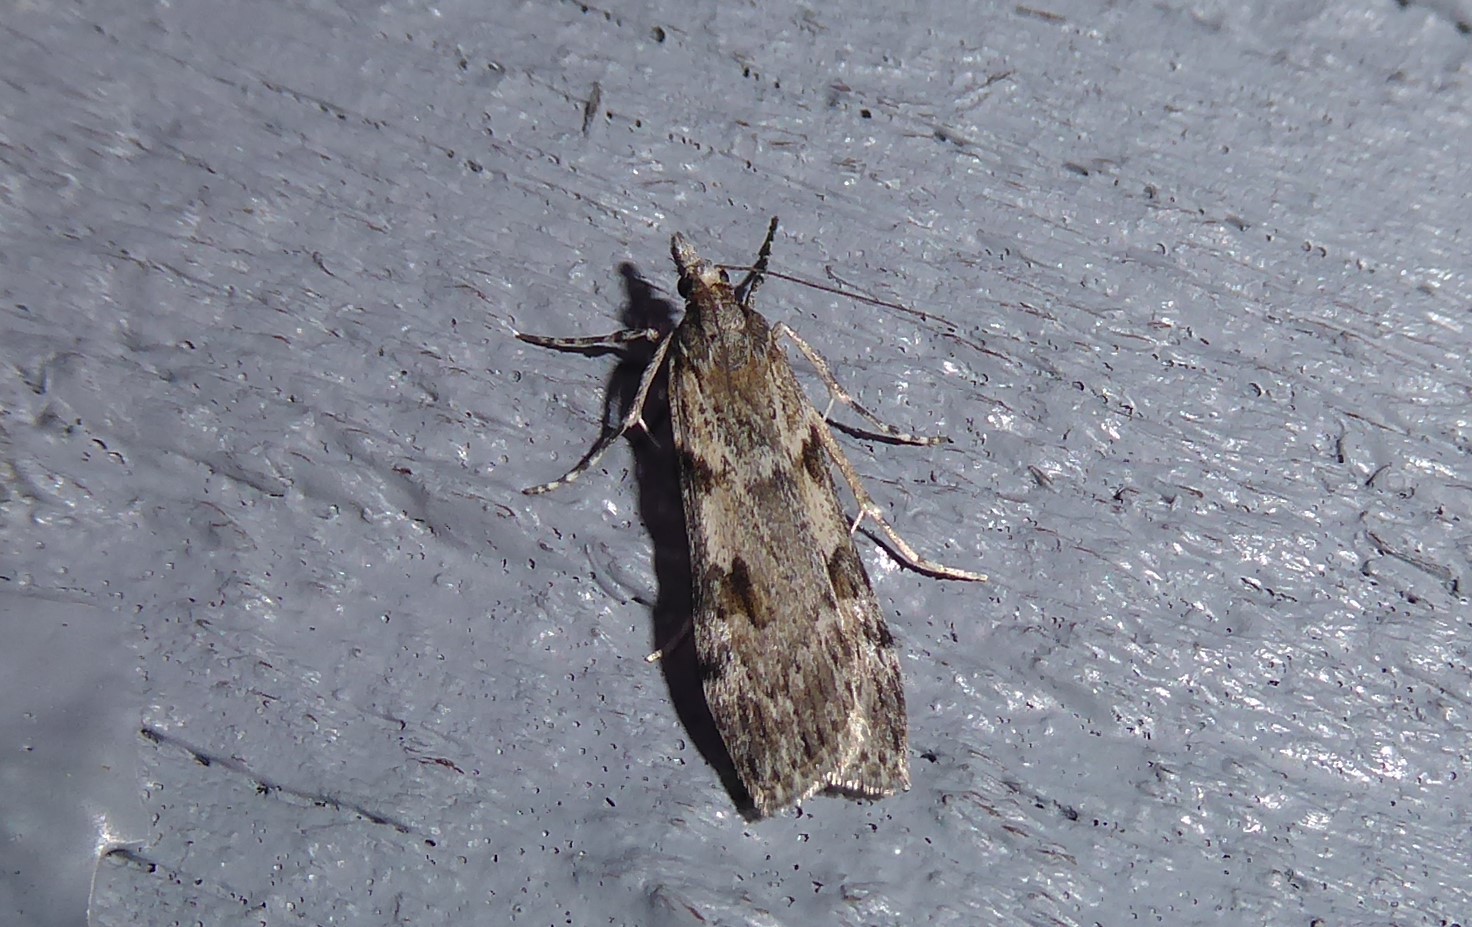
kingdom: Animalia
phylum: Arthropoda
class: Insecta
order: Lepidoptera
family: Crambidae
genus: Scoparia
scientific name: Scoparia halopis
